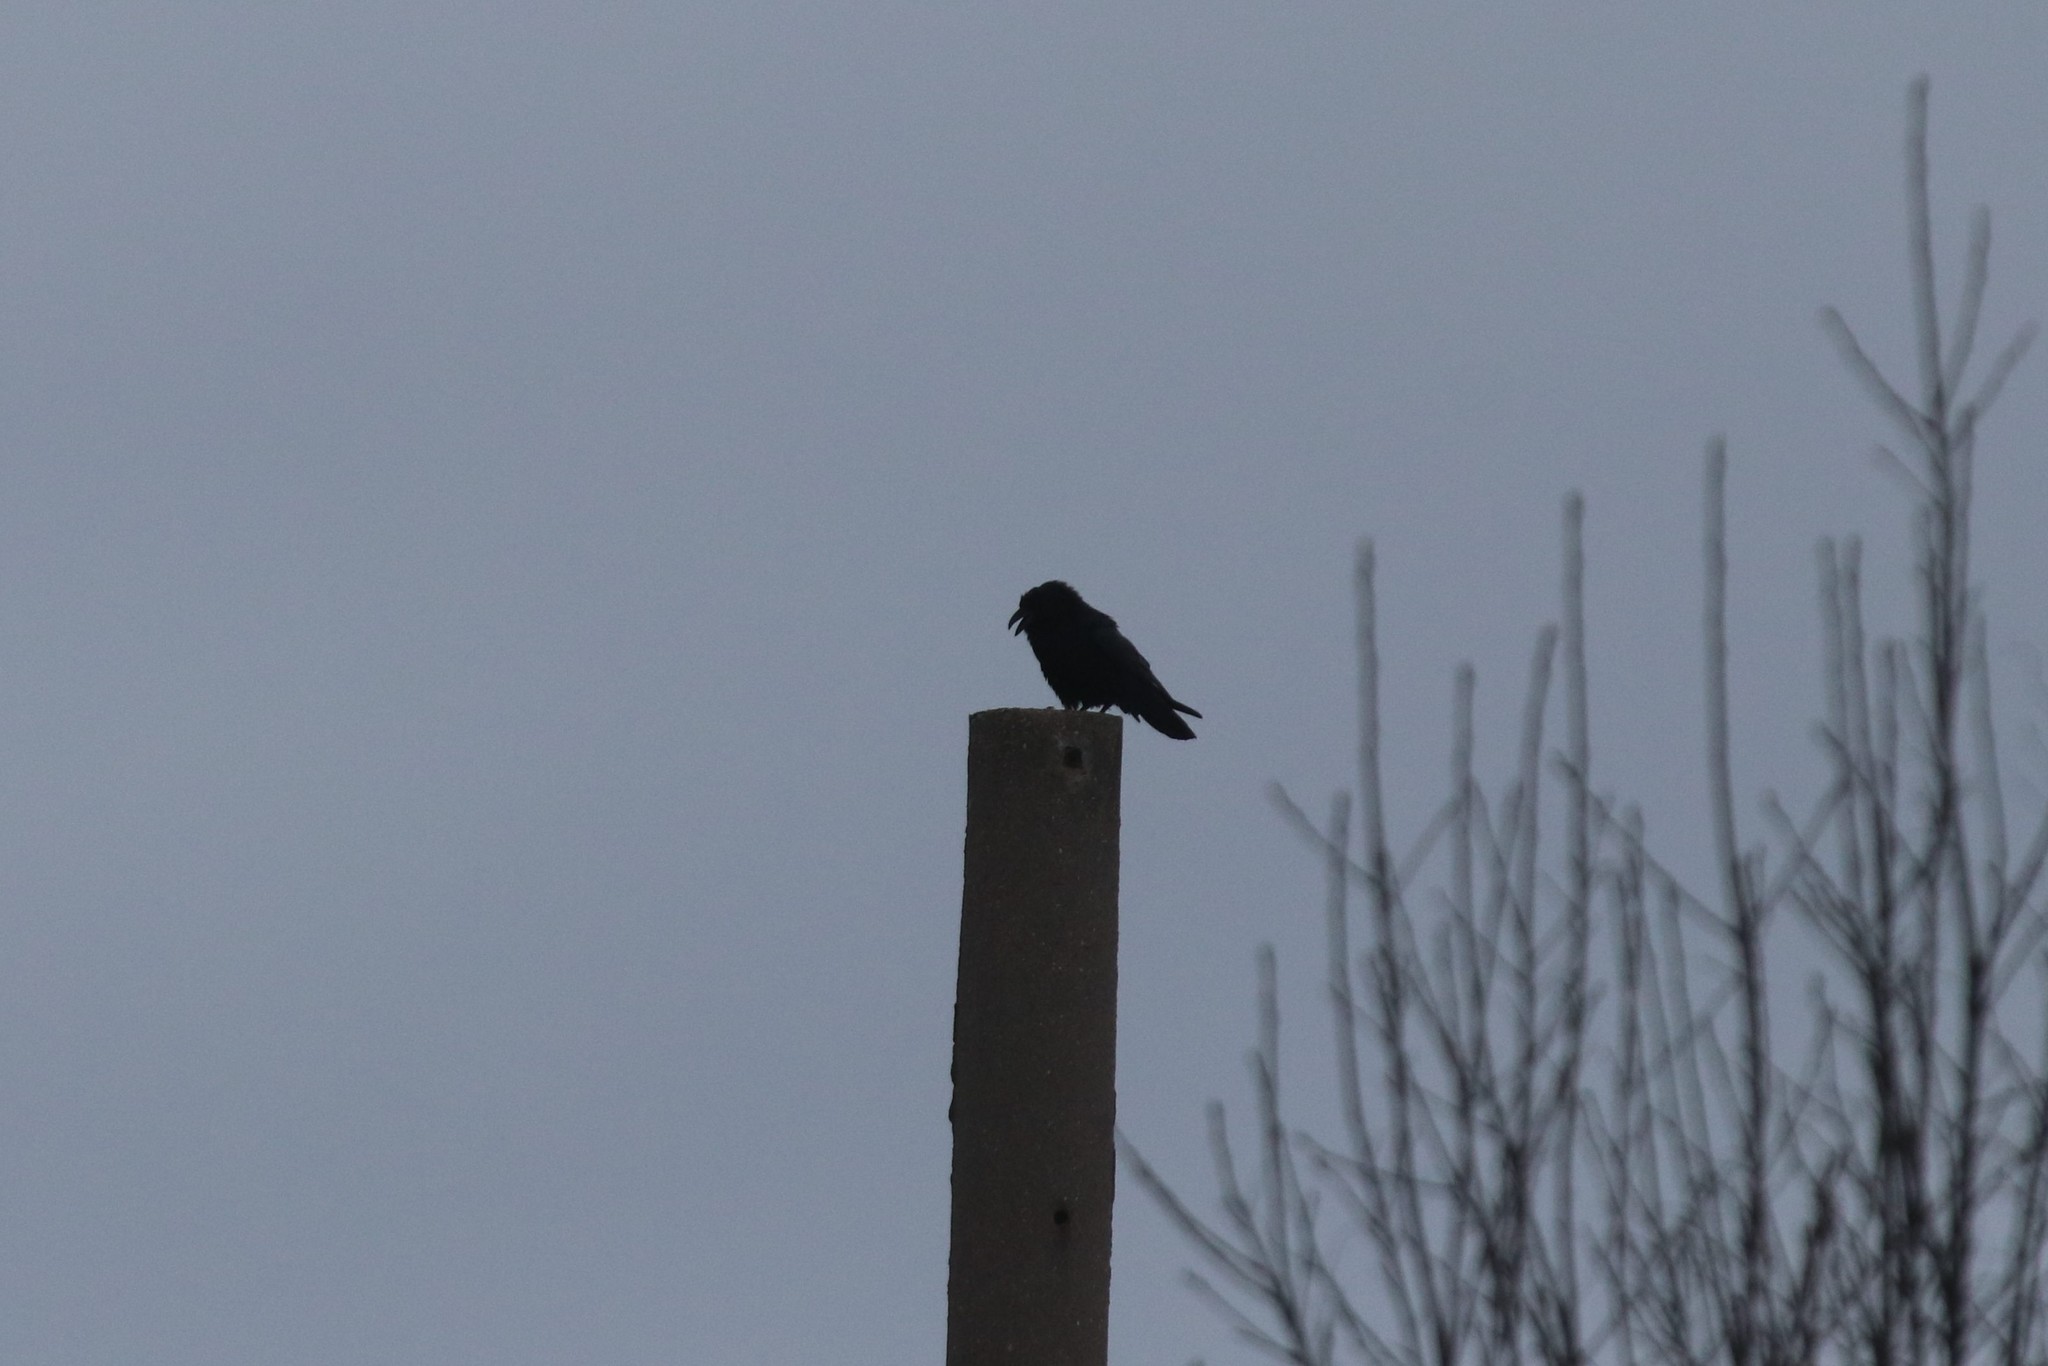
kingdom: Animalia
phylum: Chordata
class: Aves
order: Passeriformes
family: Corvidae
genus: Corvus
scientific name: Corvus corax
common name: Common raven
